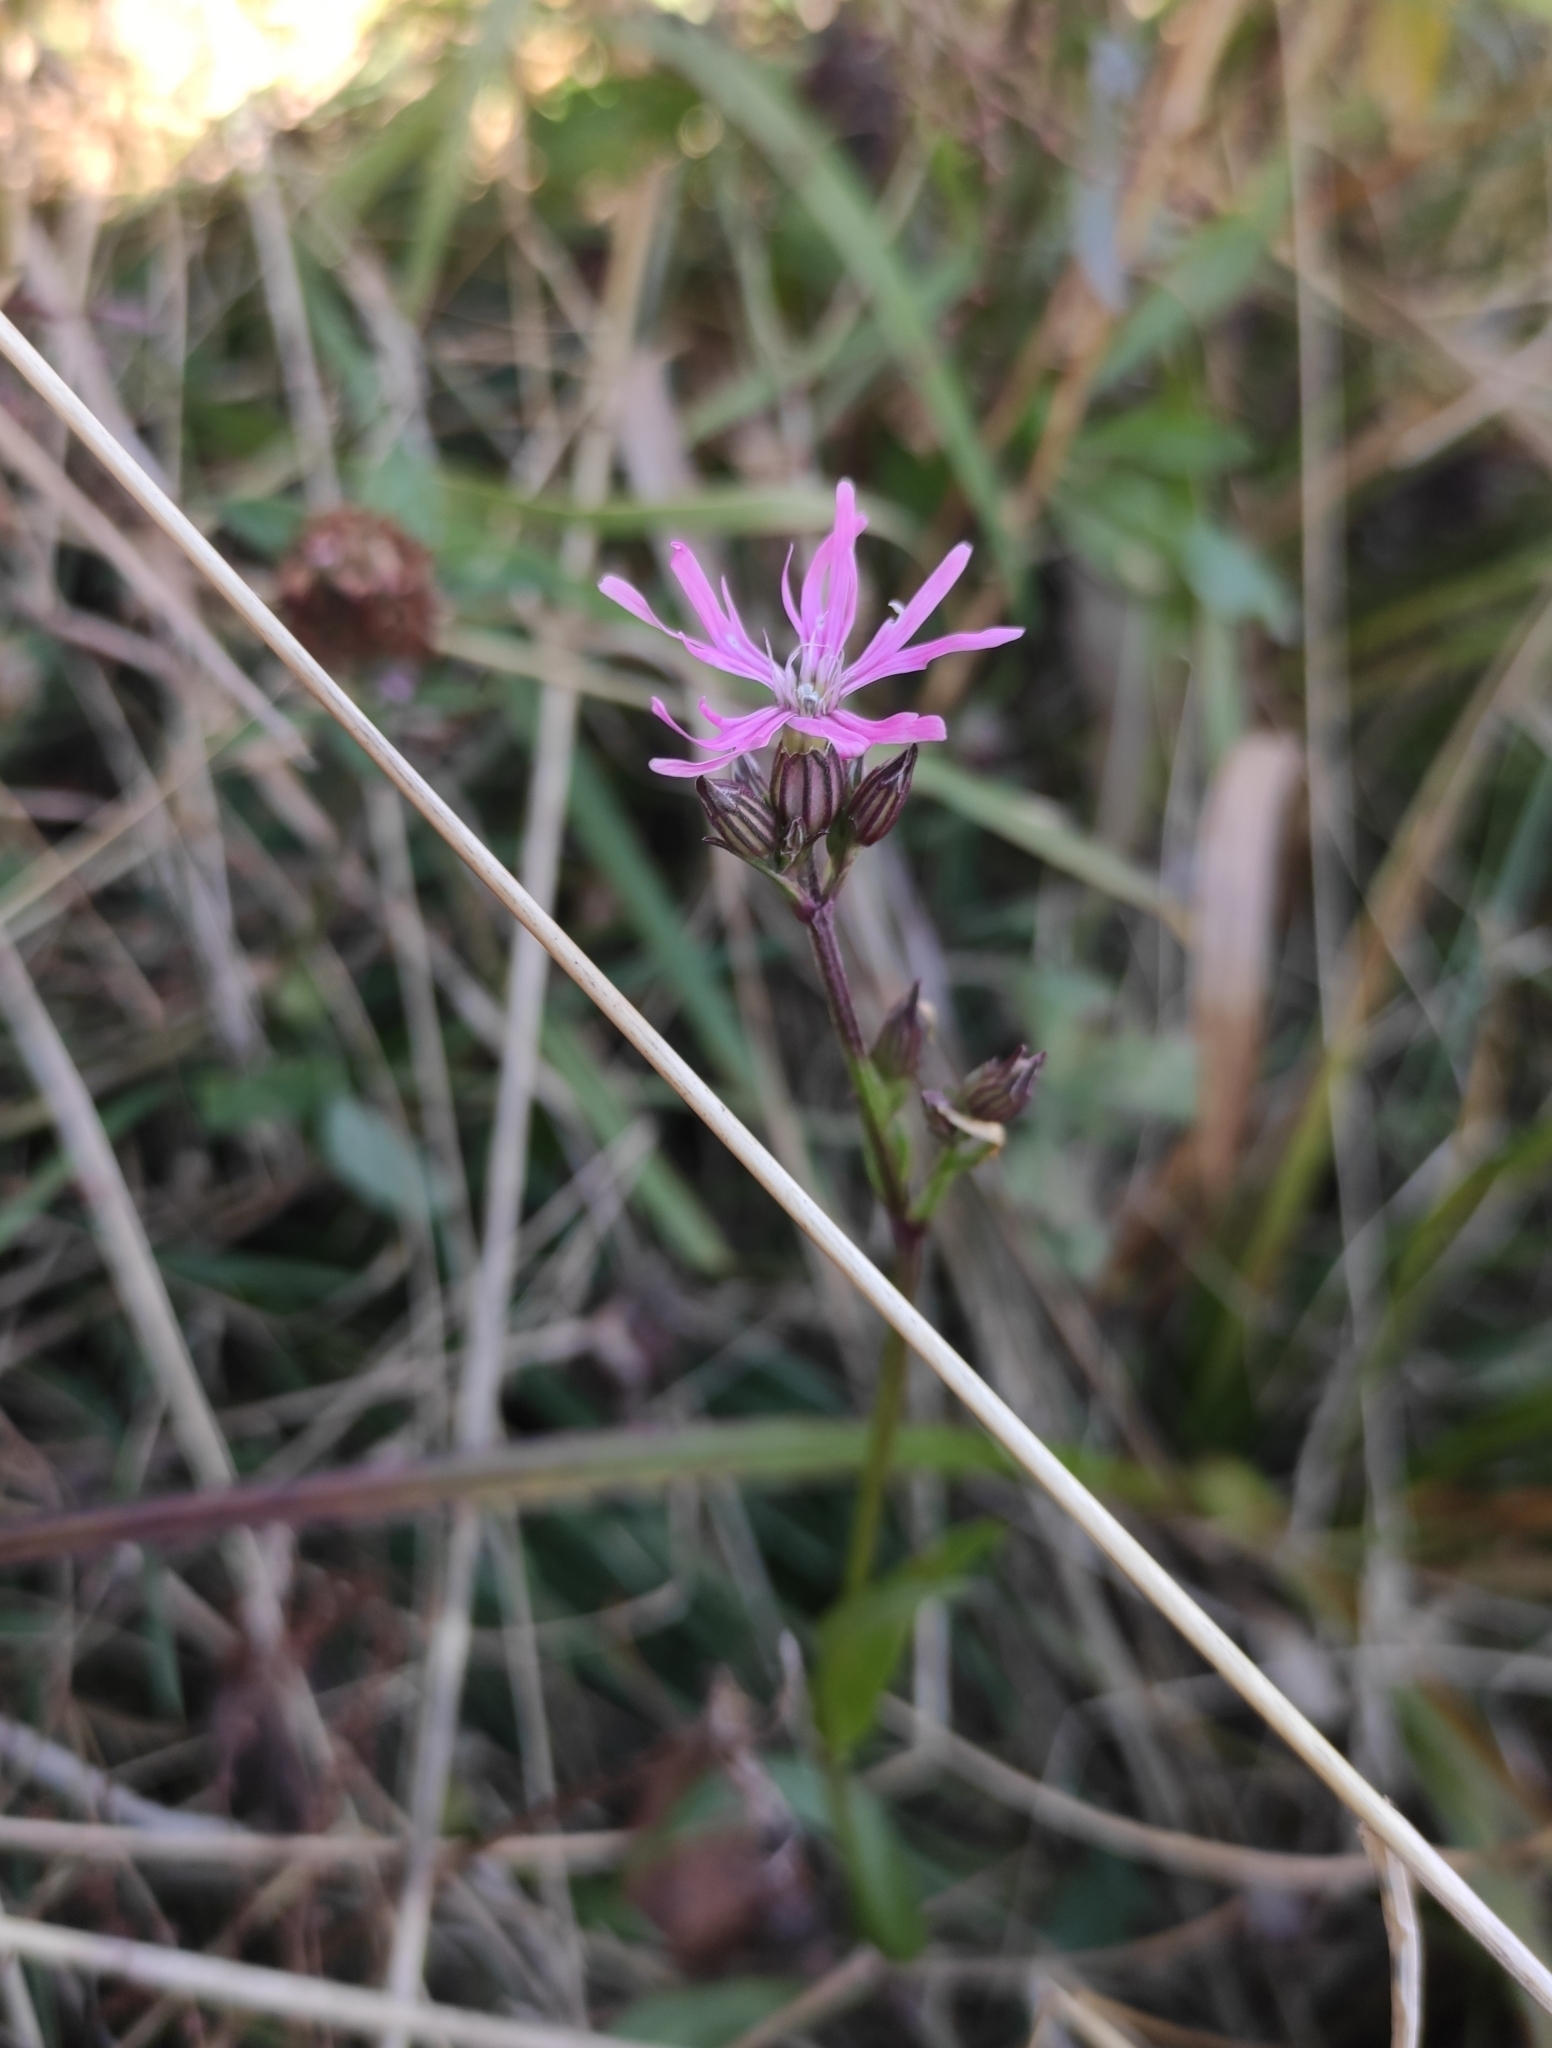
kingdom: Plantae
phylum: Tracheophyta
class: Magnoliopsida
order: Caryophyllales
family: Caryophyllaceae
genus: Silene
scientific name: Silene flos-cuculi
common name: Ragged-robin
